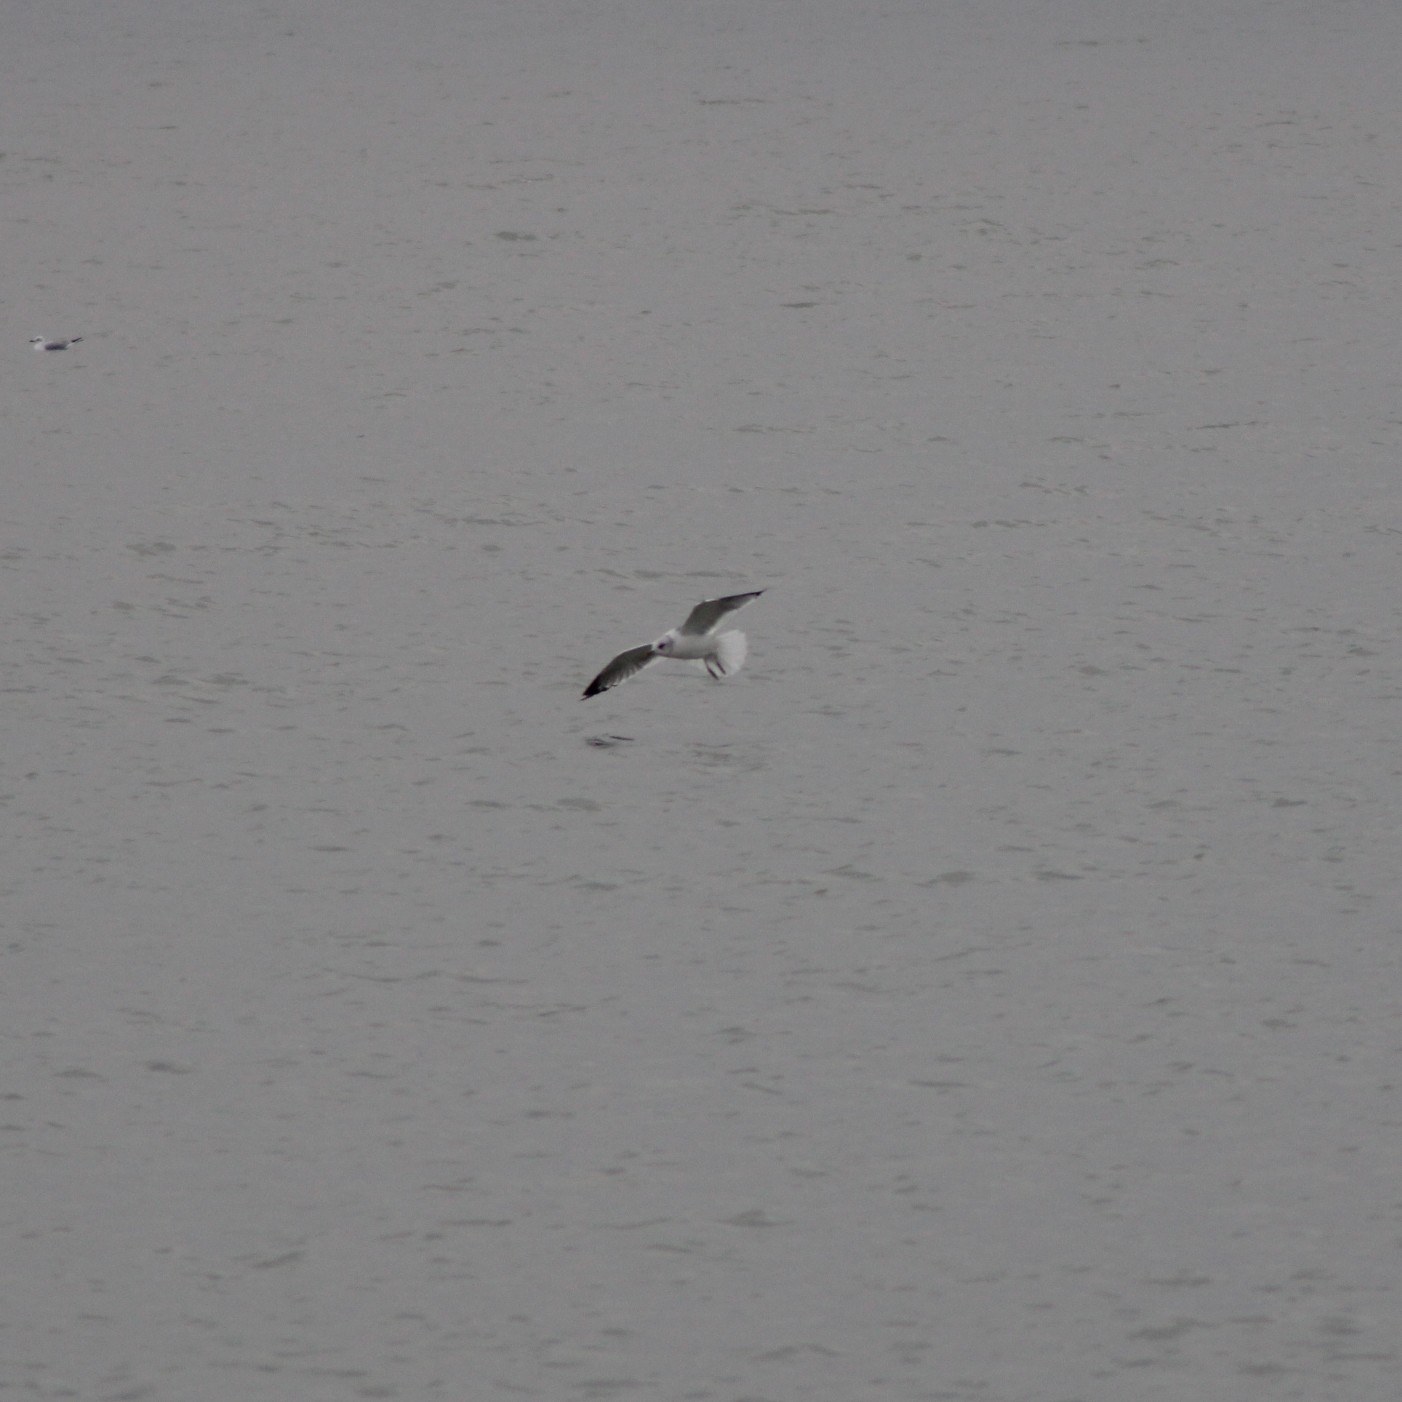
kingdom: Animalia
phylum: Chordata
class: Aves
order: Charadriiformes
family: Laridae
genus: Larus
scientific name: Larus canus
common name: Mew gull
